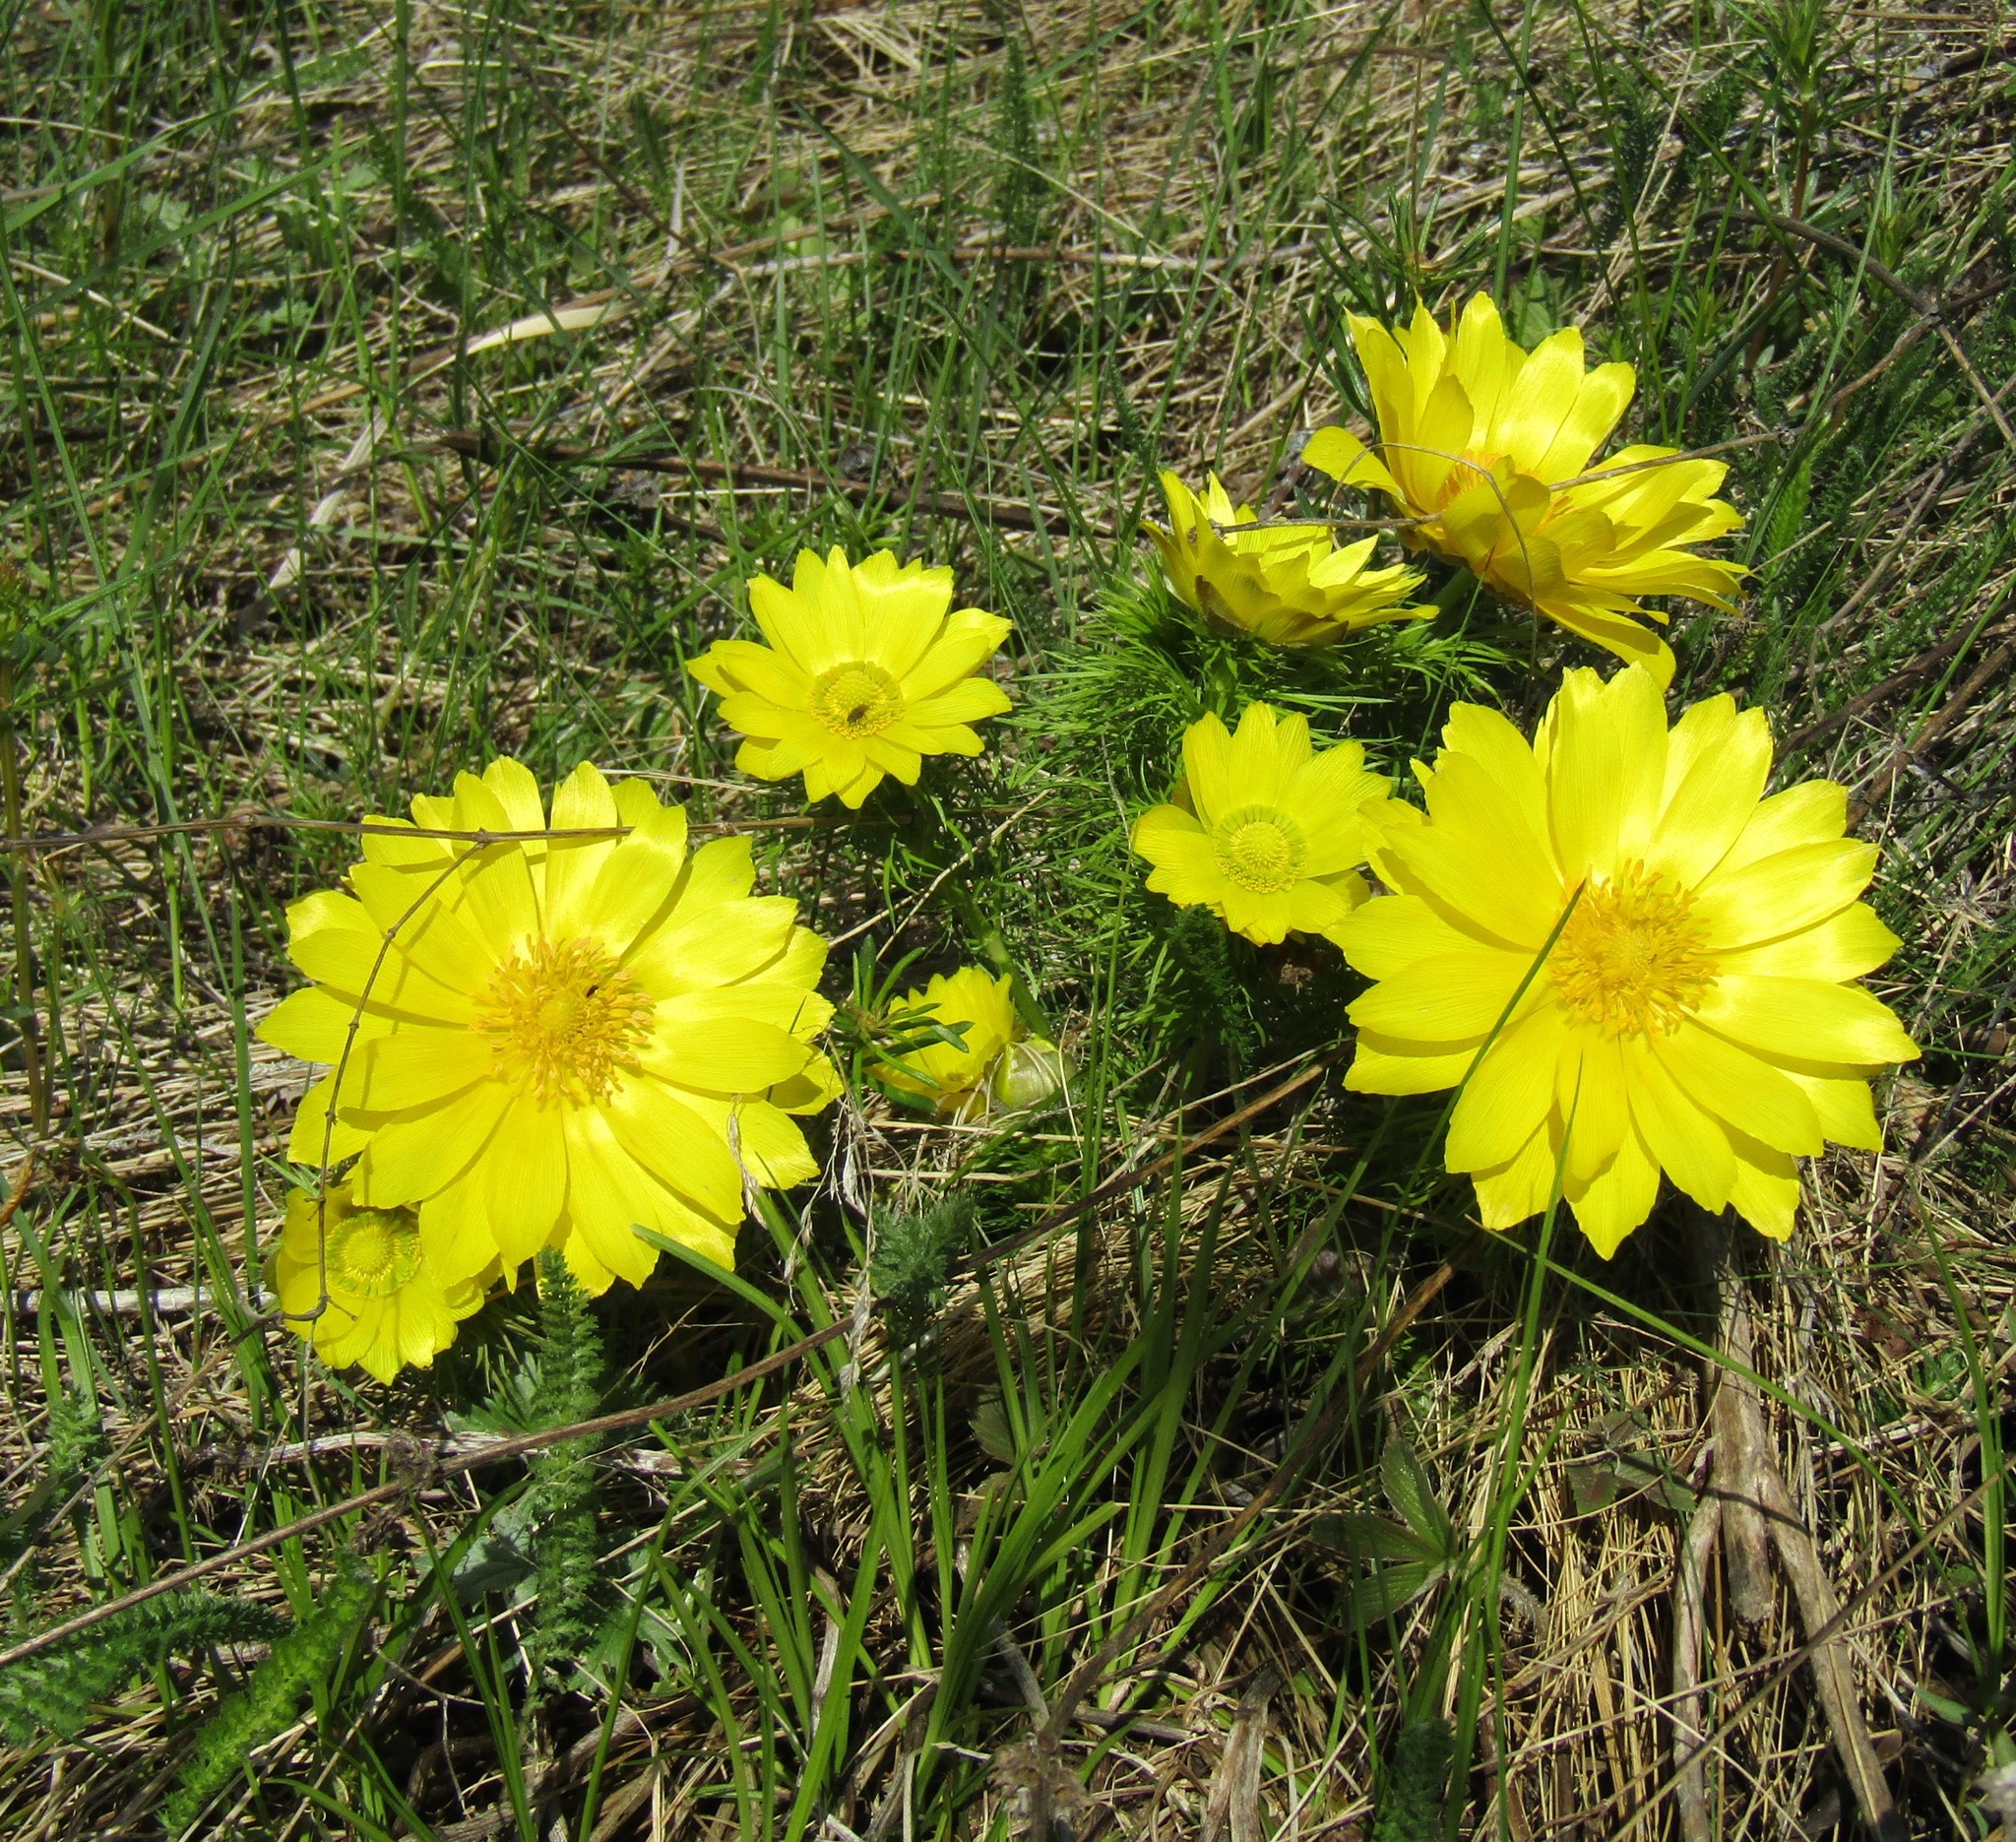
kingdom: Plantae
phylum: Tracheophyta
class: Magnoliopsida
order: Ranunculales
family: Ranunculaceae
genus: Adonis
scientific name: Adonis vernalis
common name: Yellow pheasants-eye
